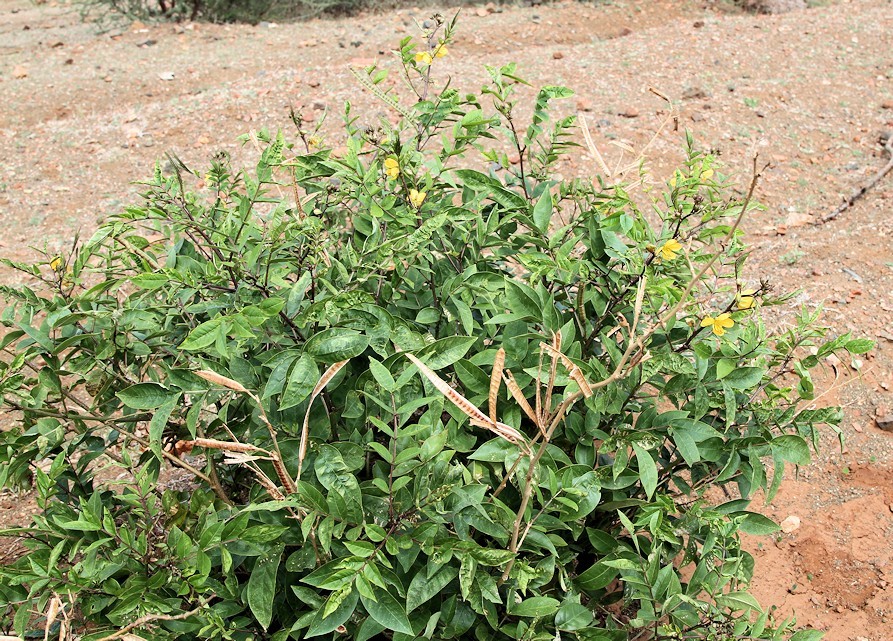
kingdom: Plantae
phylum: Tracheophyta
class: Magnoliopsida
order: Fabales
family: Fabaceae
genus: Senna
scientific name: Senna occidentalis
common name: Septicweed
